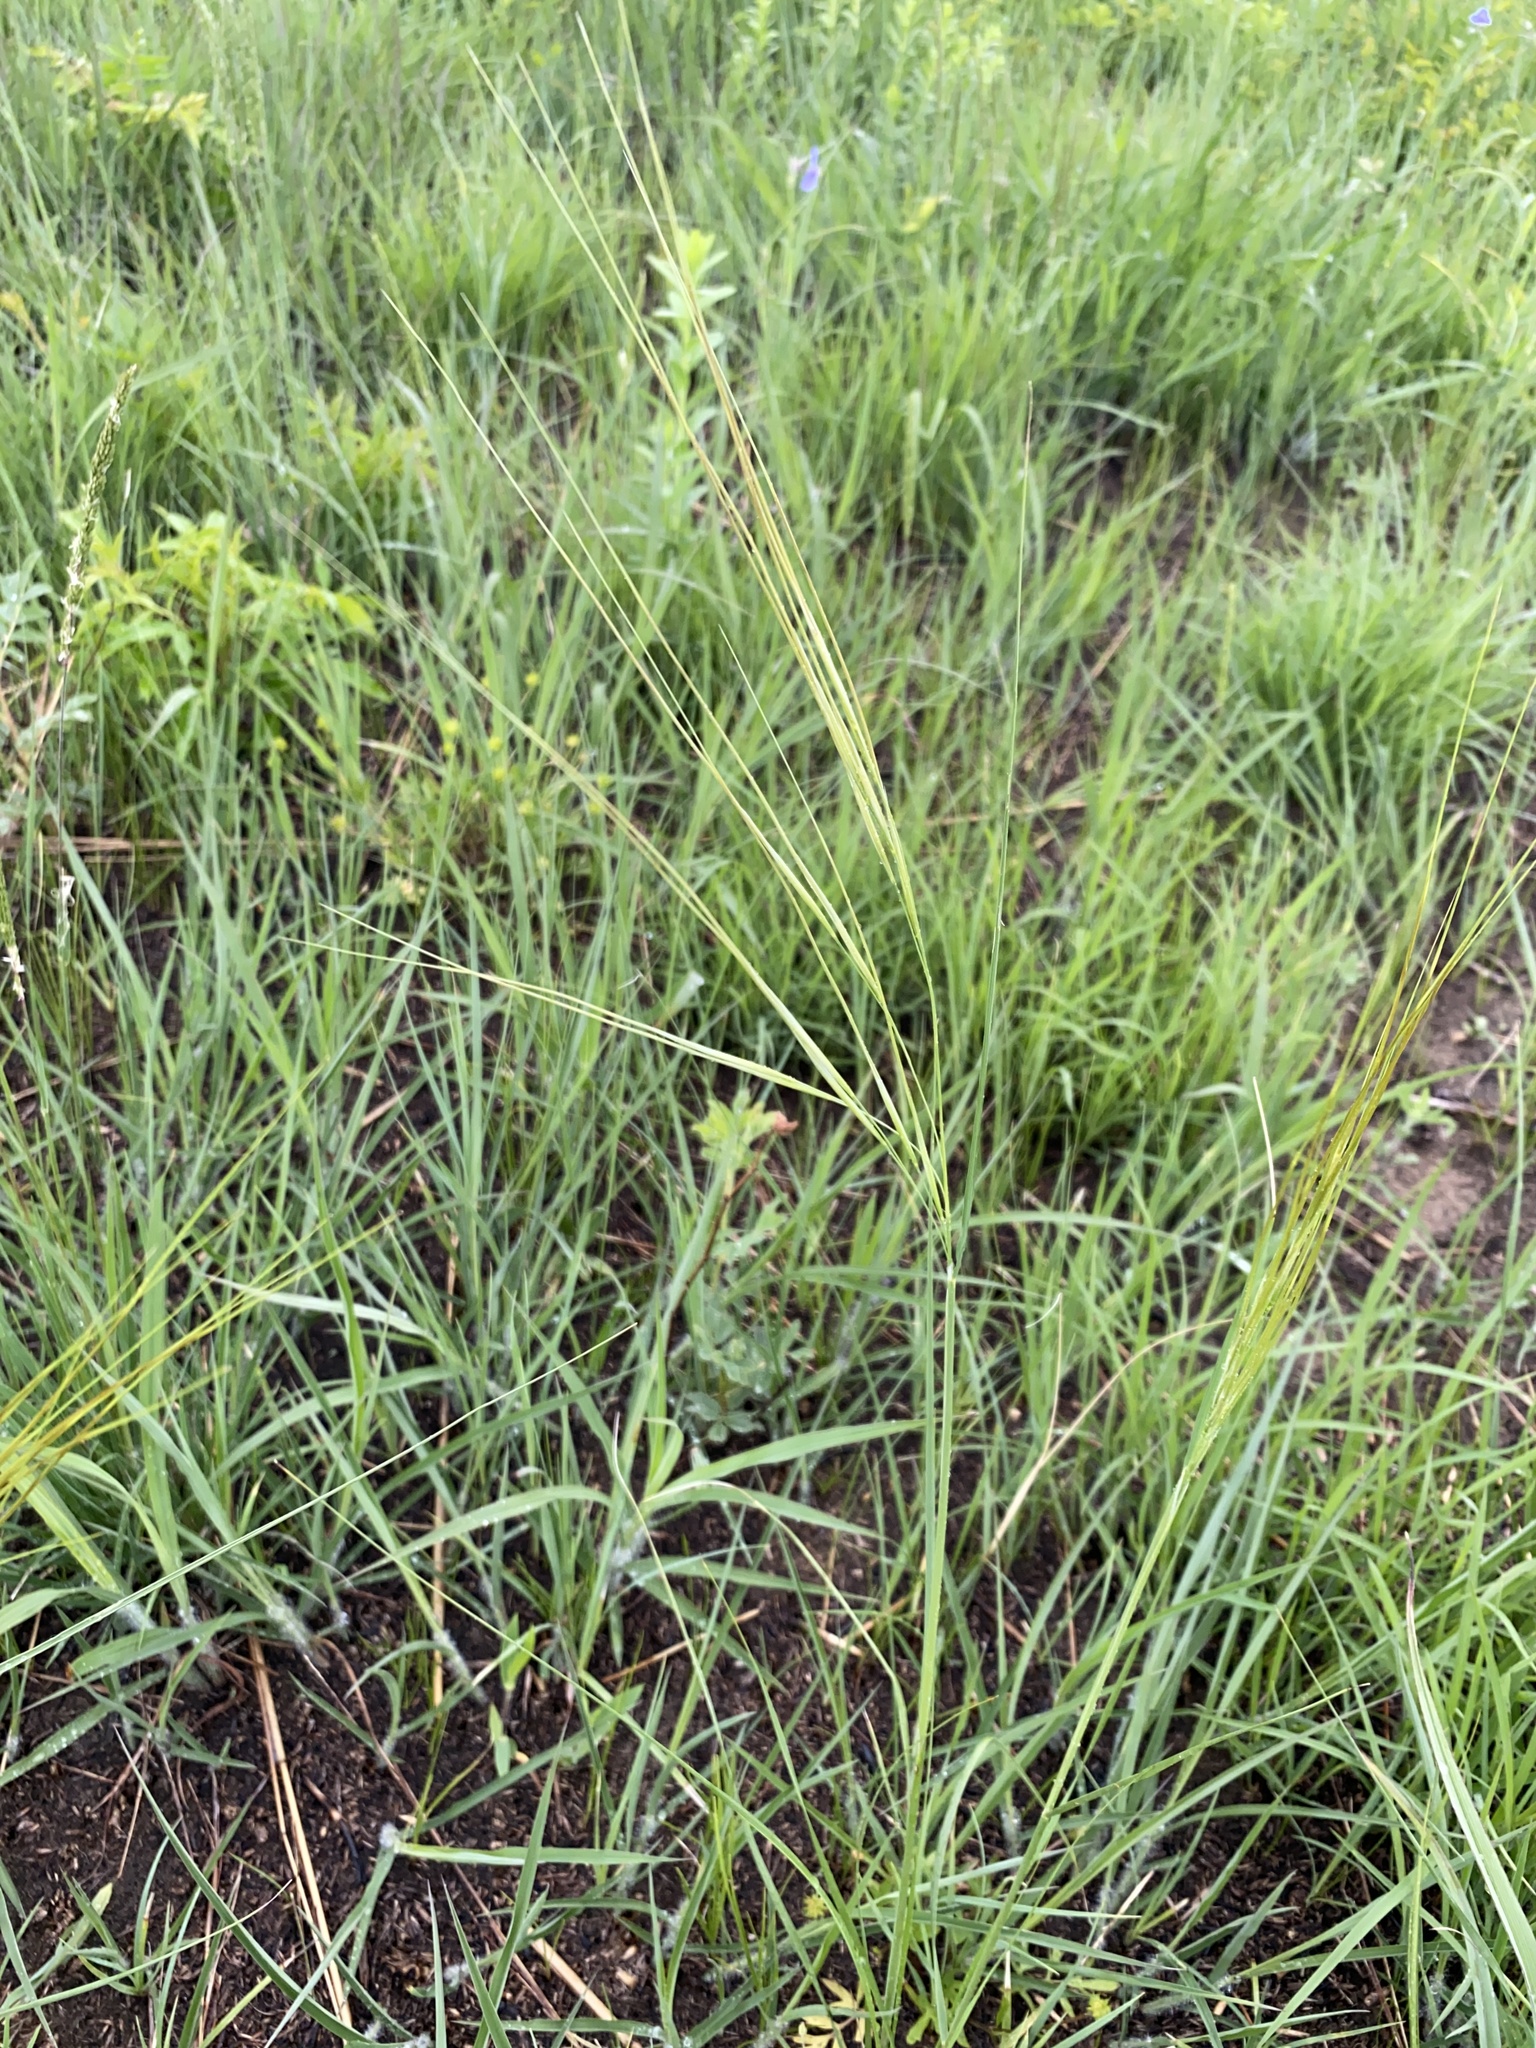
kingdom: Plantae
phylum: Tracheophyta
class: Liliopsida
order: Poales
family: Poaceae
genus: Hesperostipa
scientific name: Hesperostipa spartea
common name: Porcupine grass
